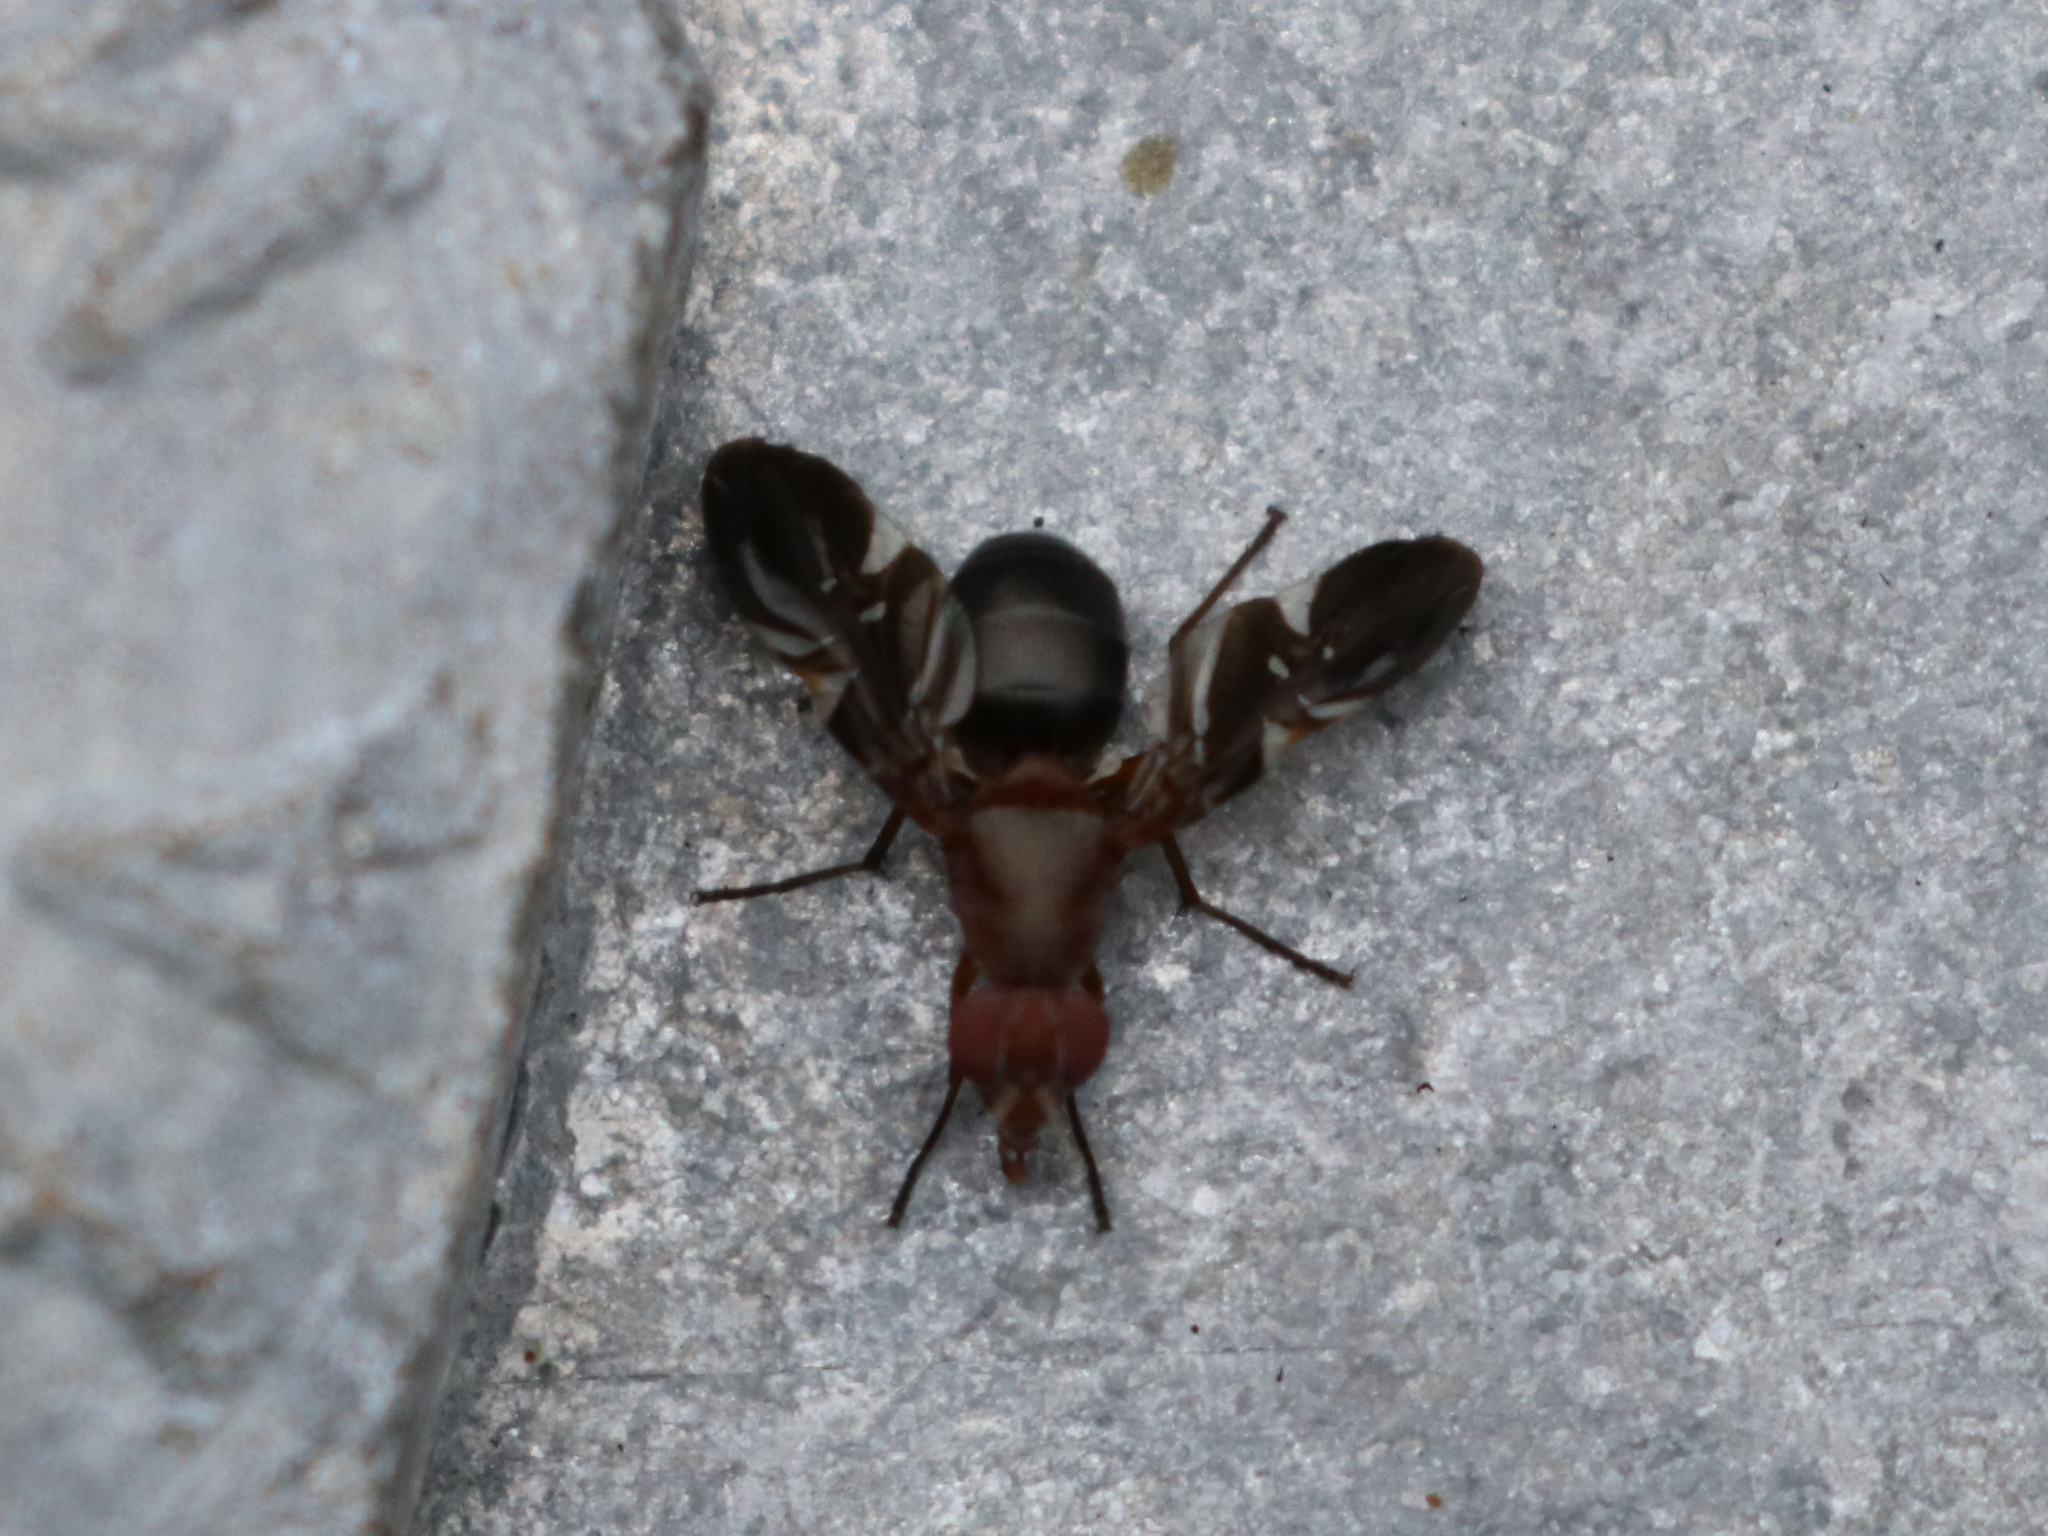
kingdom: Animalia
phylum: Arthropoda
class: Insecta
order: Diptera
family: Ulidiidae
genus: Delphinia
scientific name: Delphinia picta
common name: Common picture-winged fly
